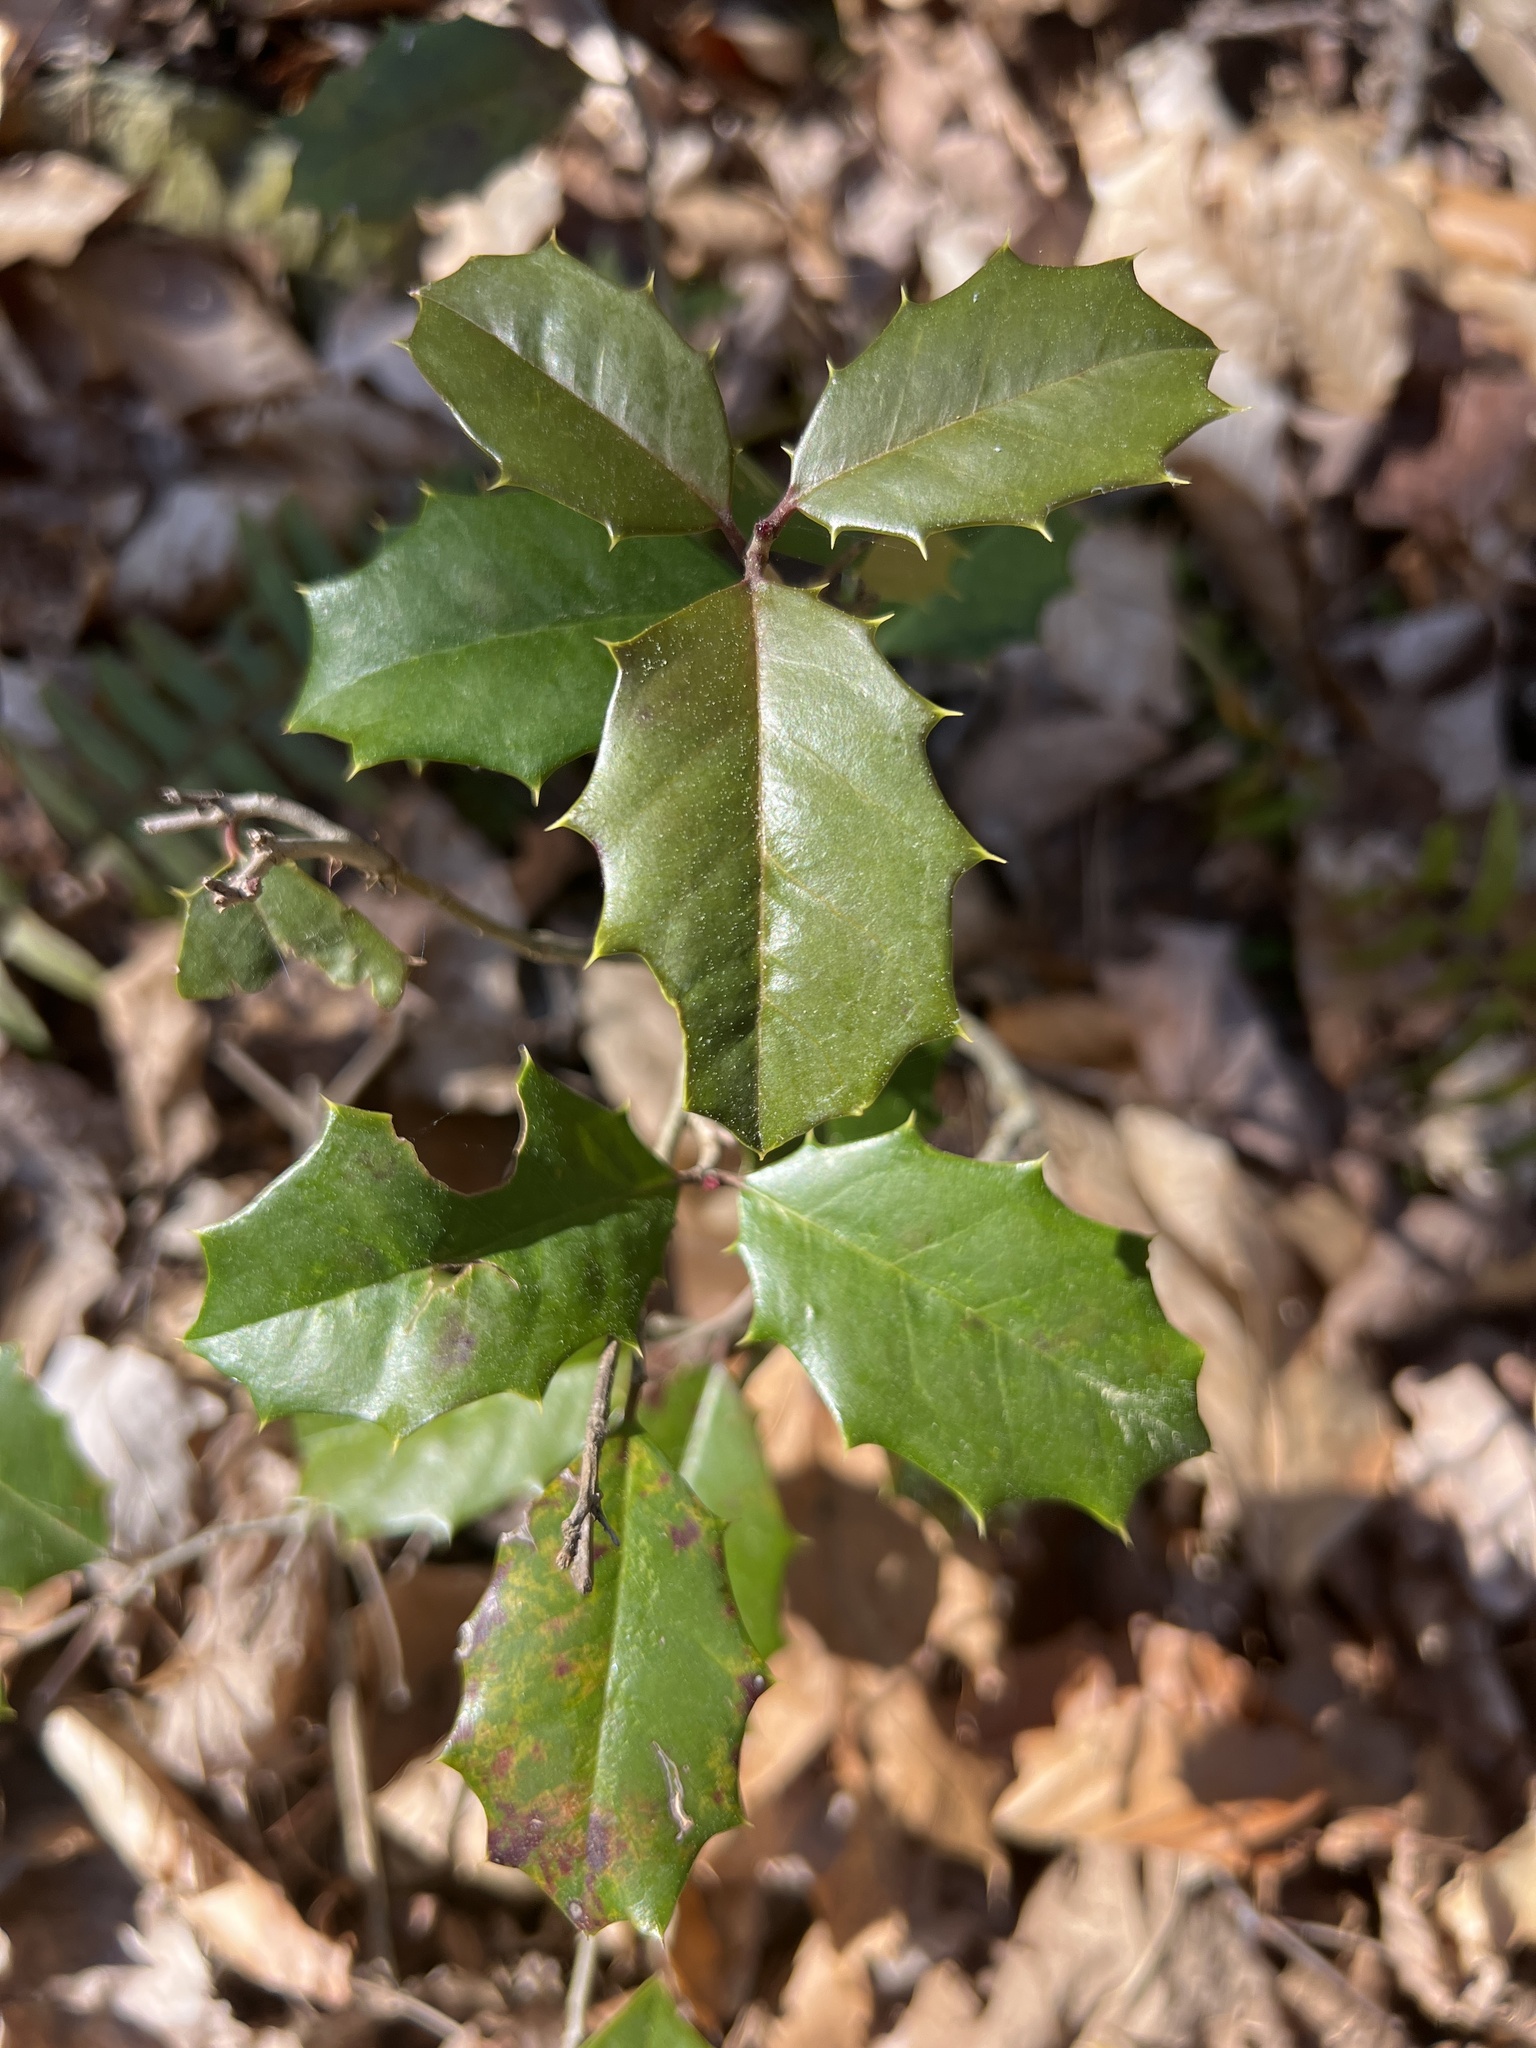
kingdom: Plantae
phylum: Tracheophyta
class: Magnoliopsida
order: Aquifoliales
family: Aquifoliaceae
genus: Ilex
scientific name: Ilex opaca
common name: American holly
